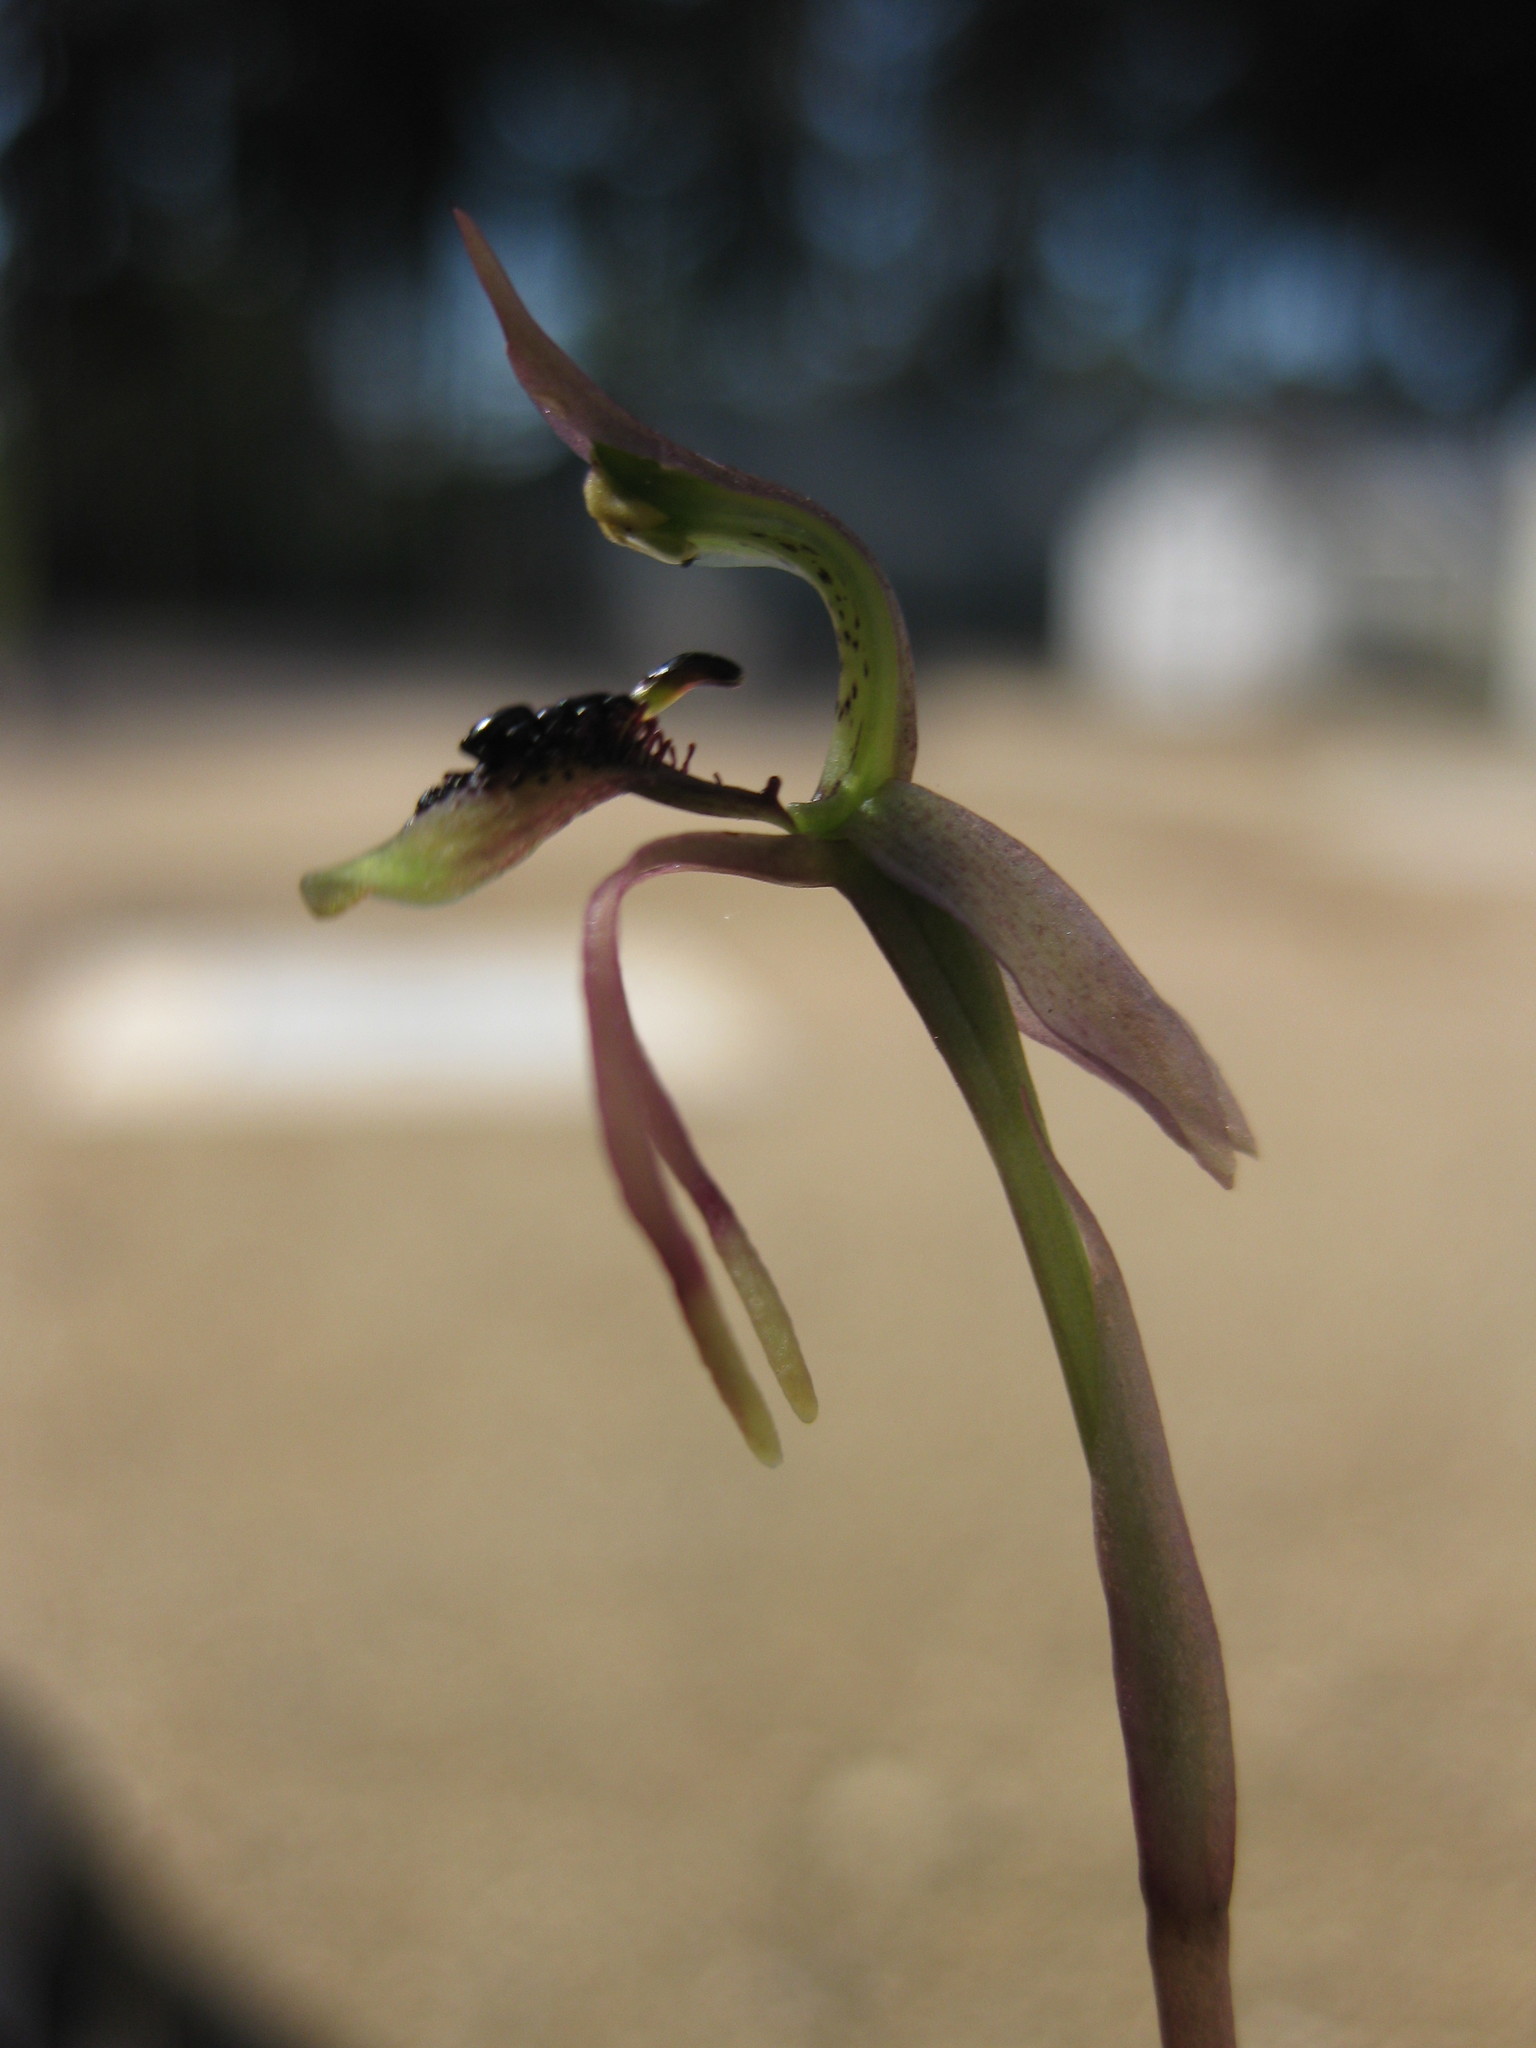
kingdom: Plantae
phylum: Tracheophyta
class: Liliopsida
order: Asparagales
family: Orchidaceae
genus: Chiloglottis
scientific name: Chiloglottis reflexa
